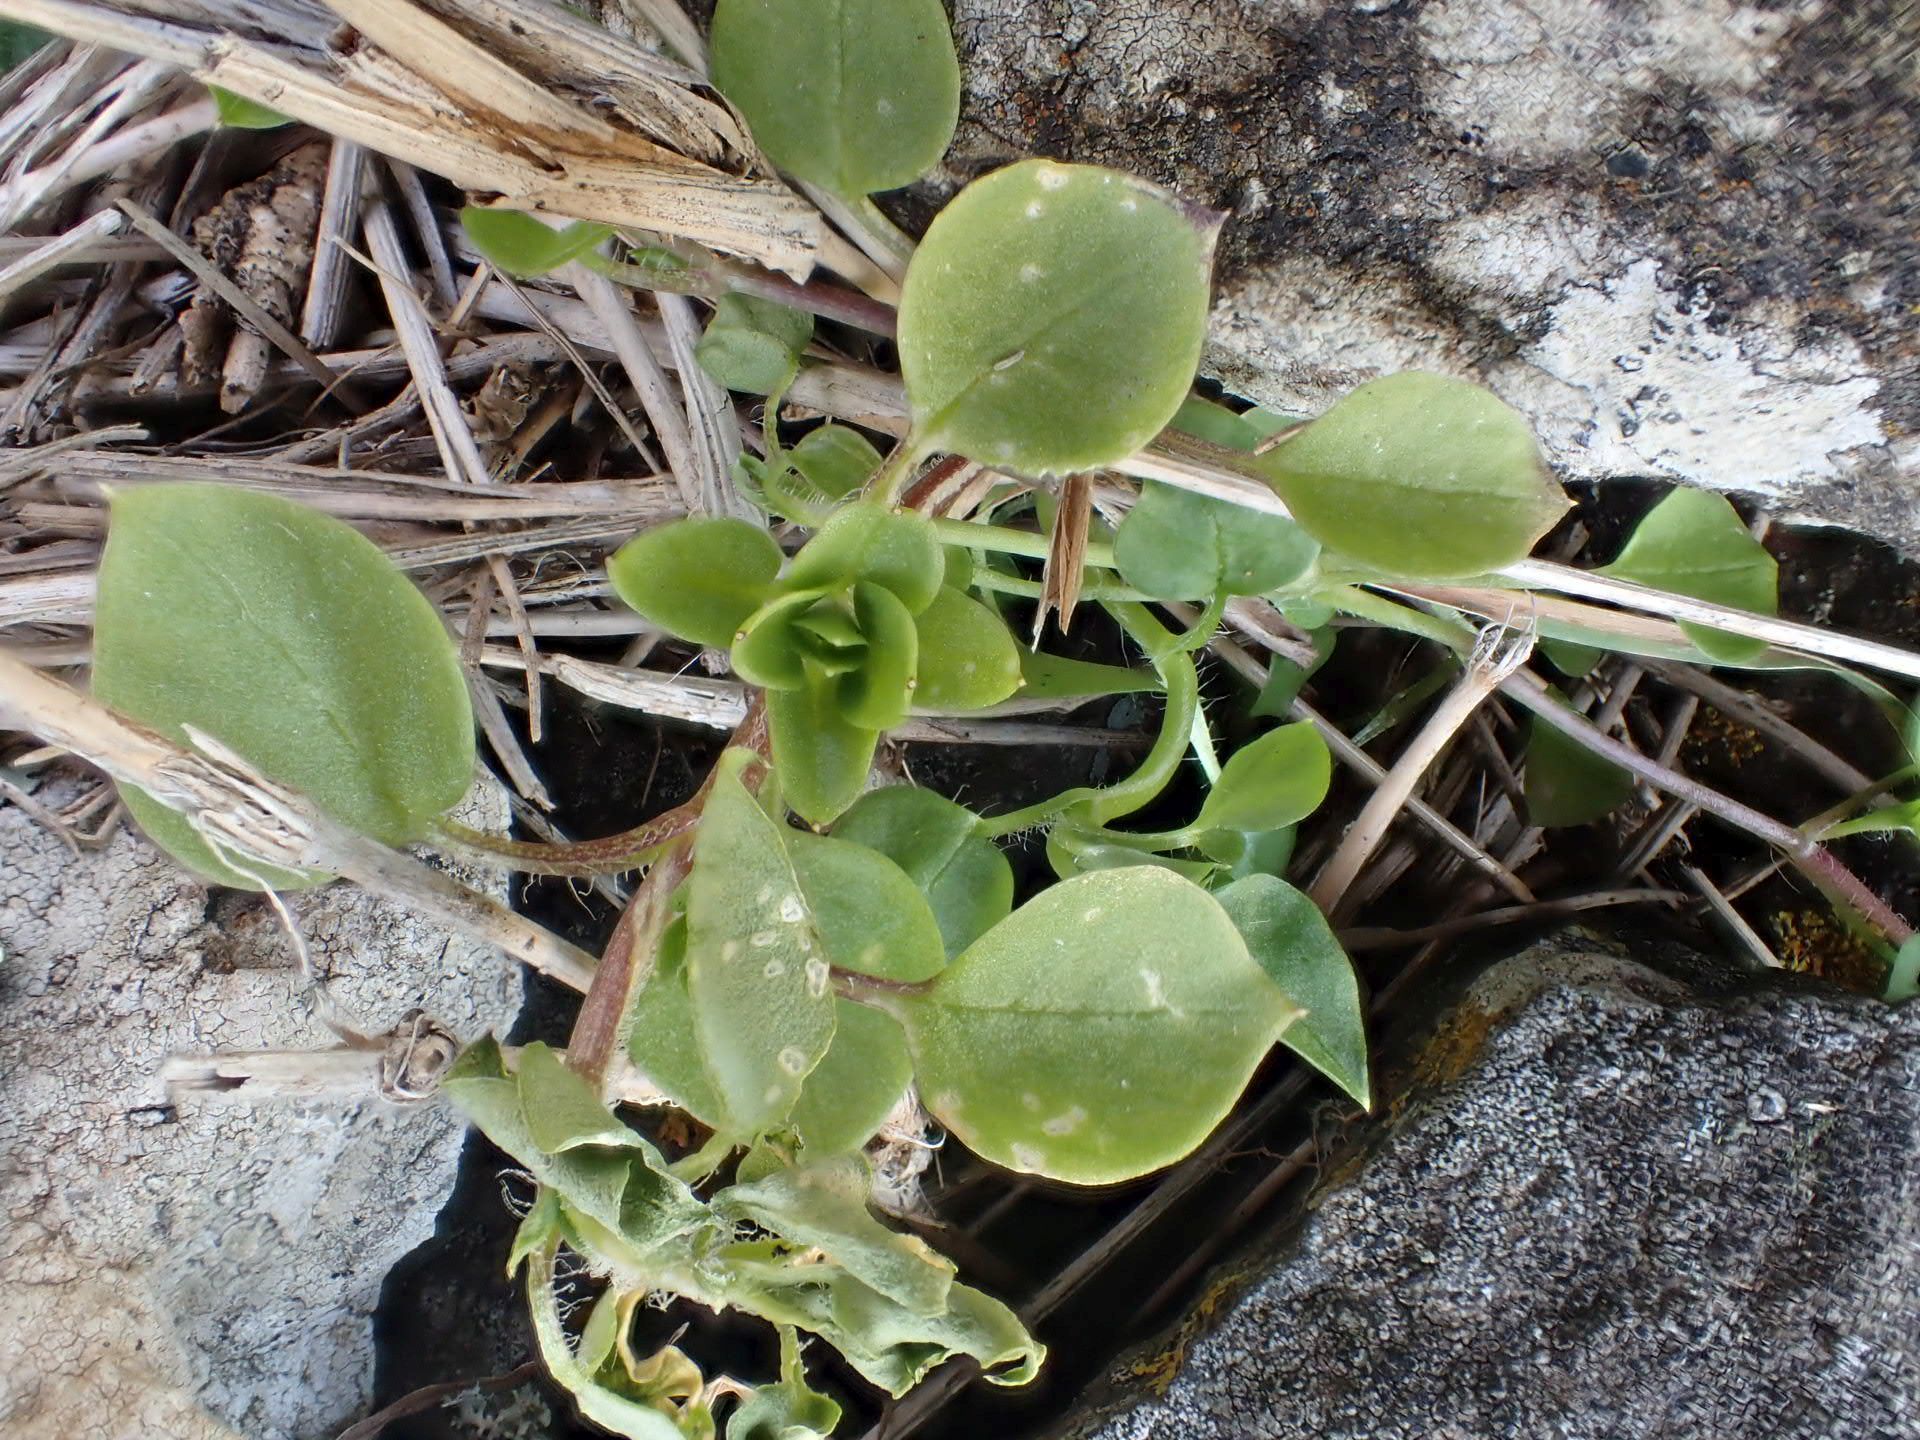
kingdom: Plantae
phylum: Tracheophyta
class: Magnoliopsida
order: Caryophyllales
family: Caryophyllaceae
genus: Stellaria
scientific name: Stellaria media
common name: Common chickweed
